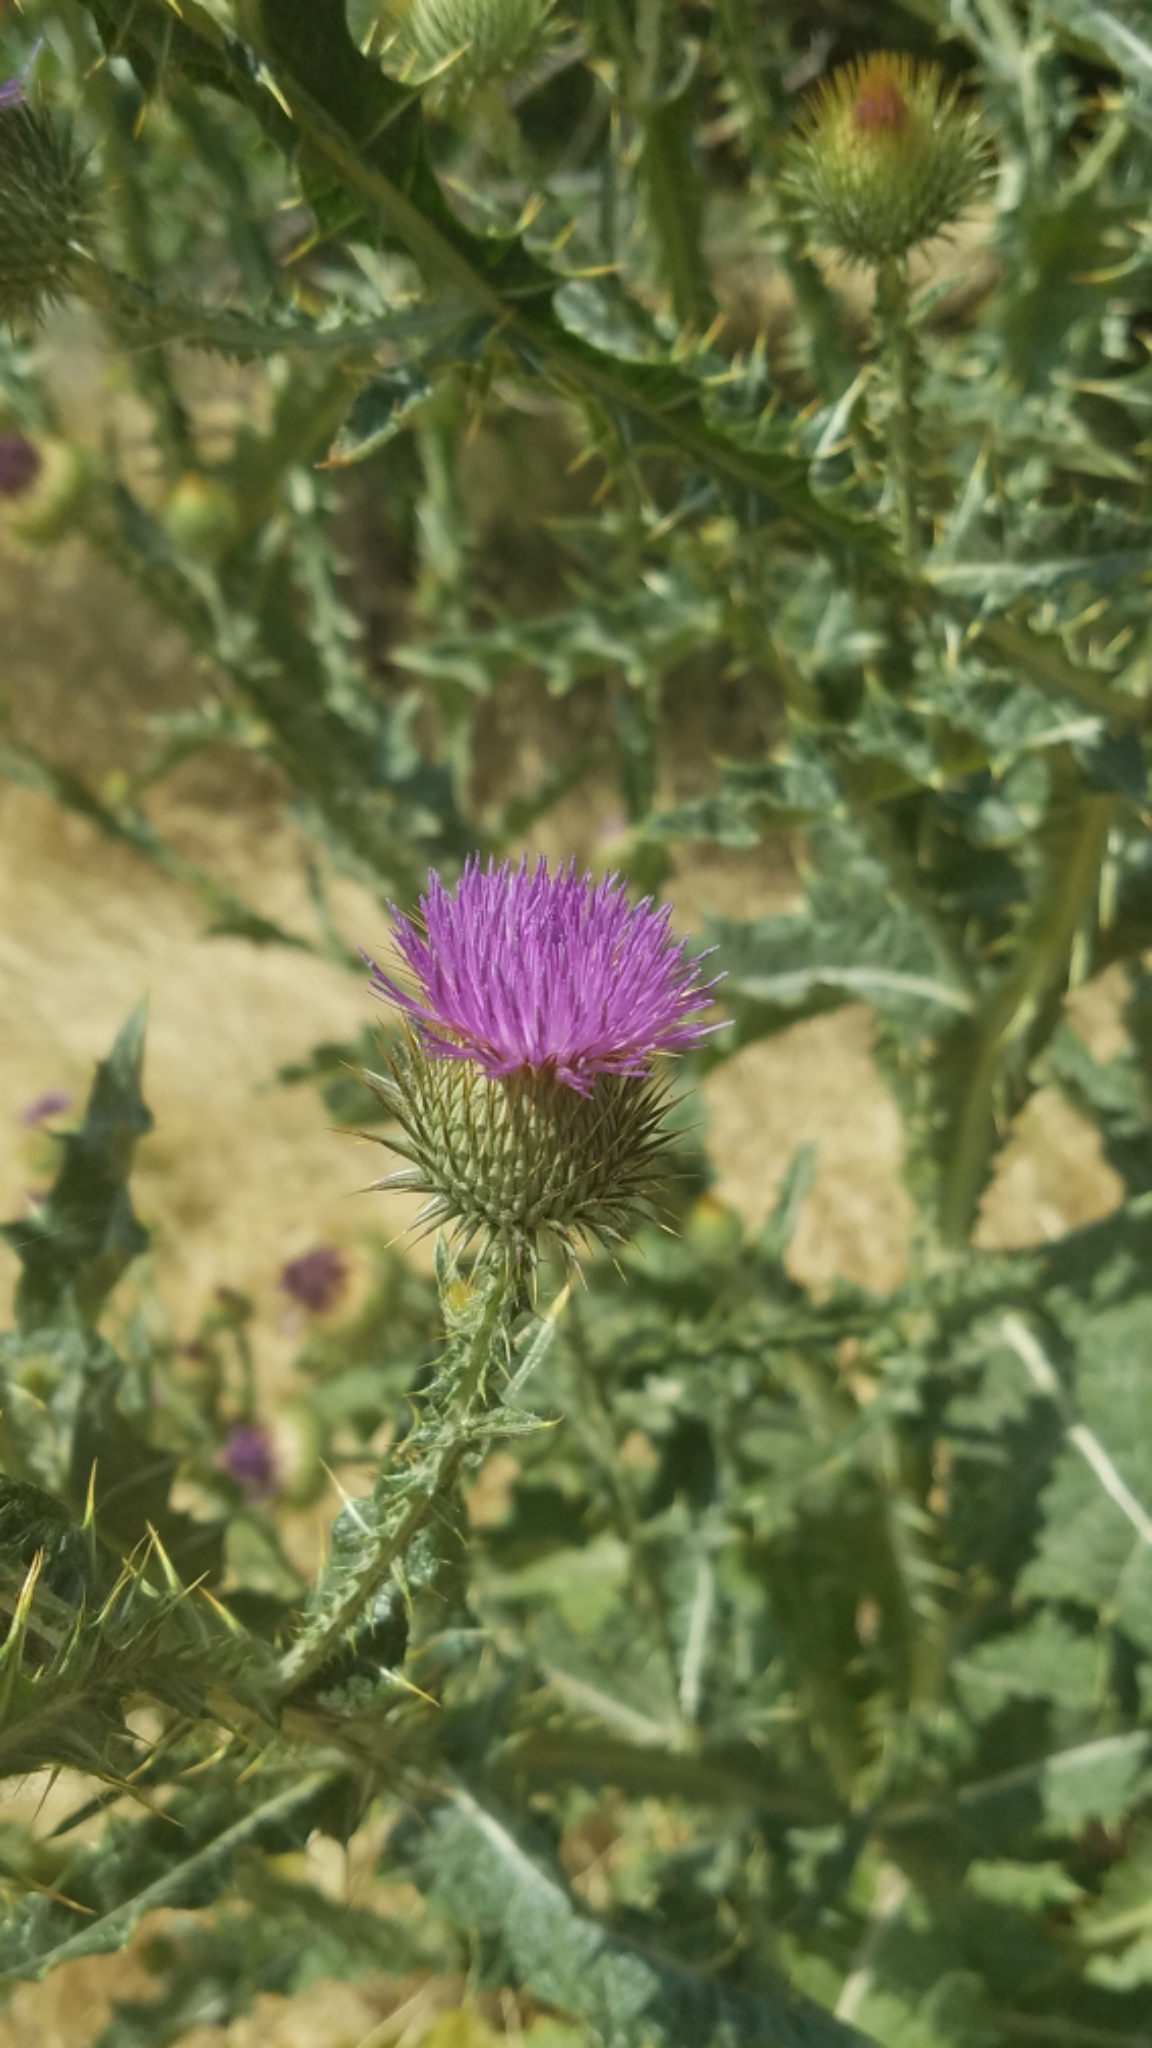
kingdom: Plantae
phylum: Tracheophyta
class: Magnoliopsida
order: Asterales
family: Asteraceae
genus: Onopordum
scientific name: Onopordum acanthium
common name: Scotch thistle
